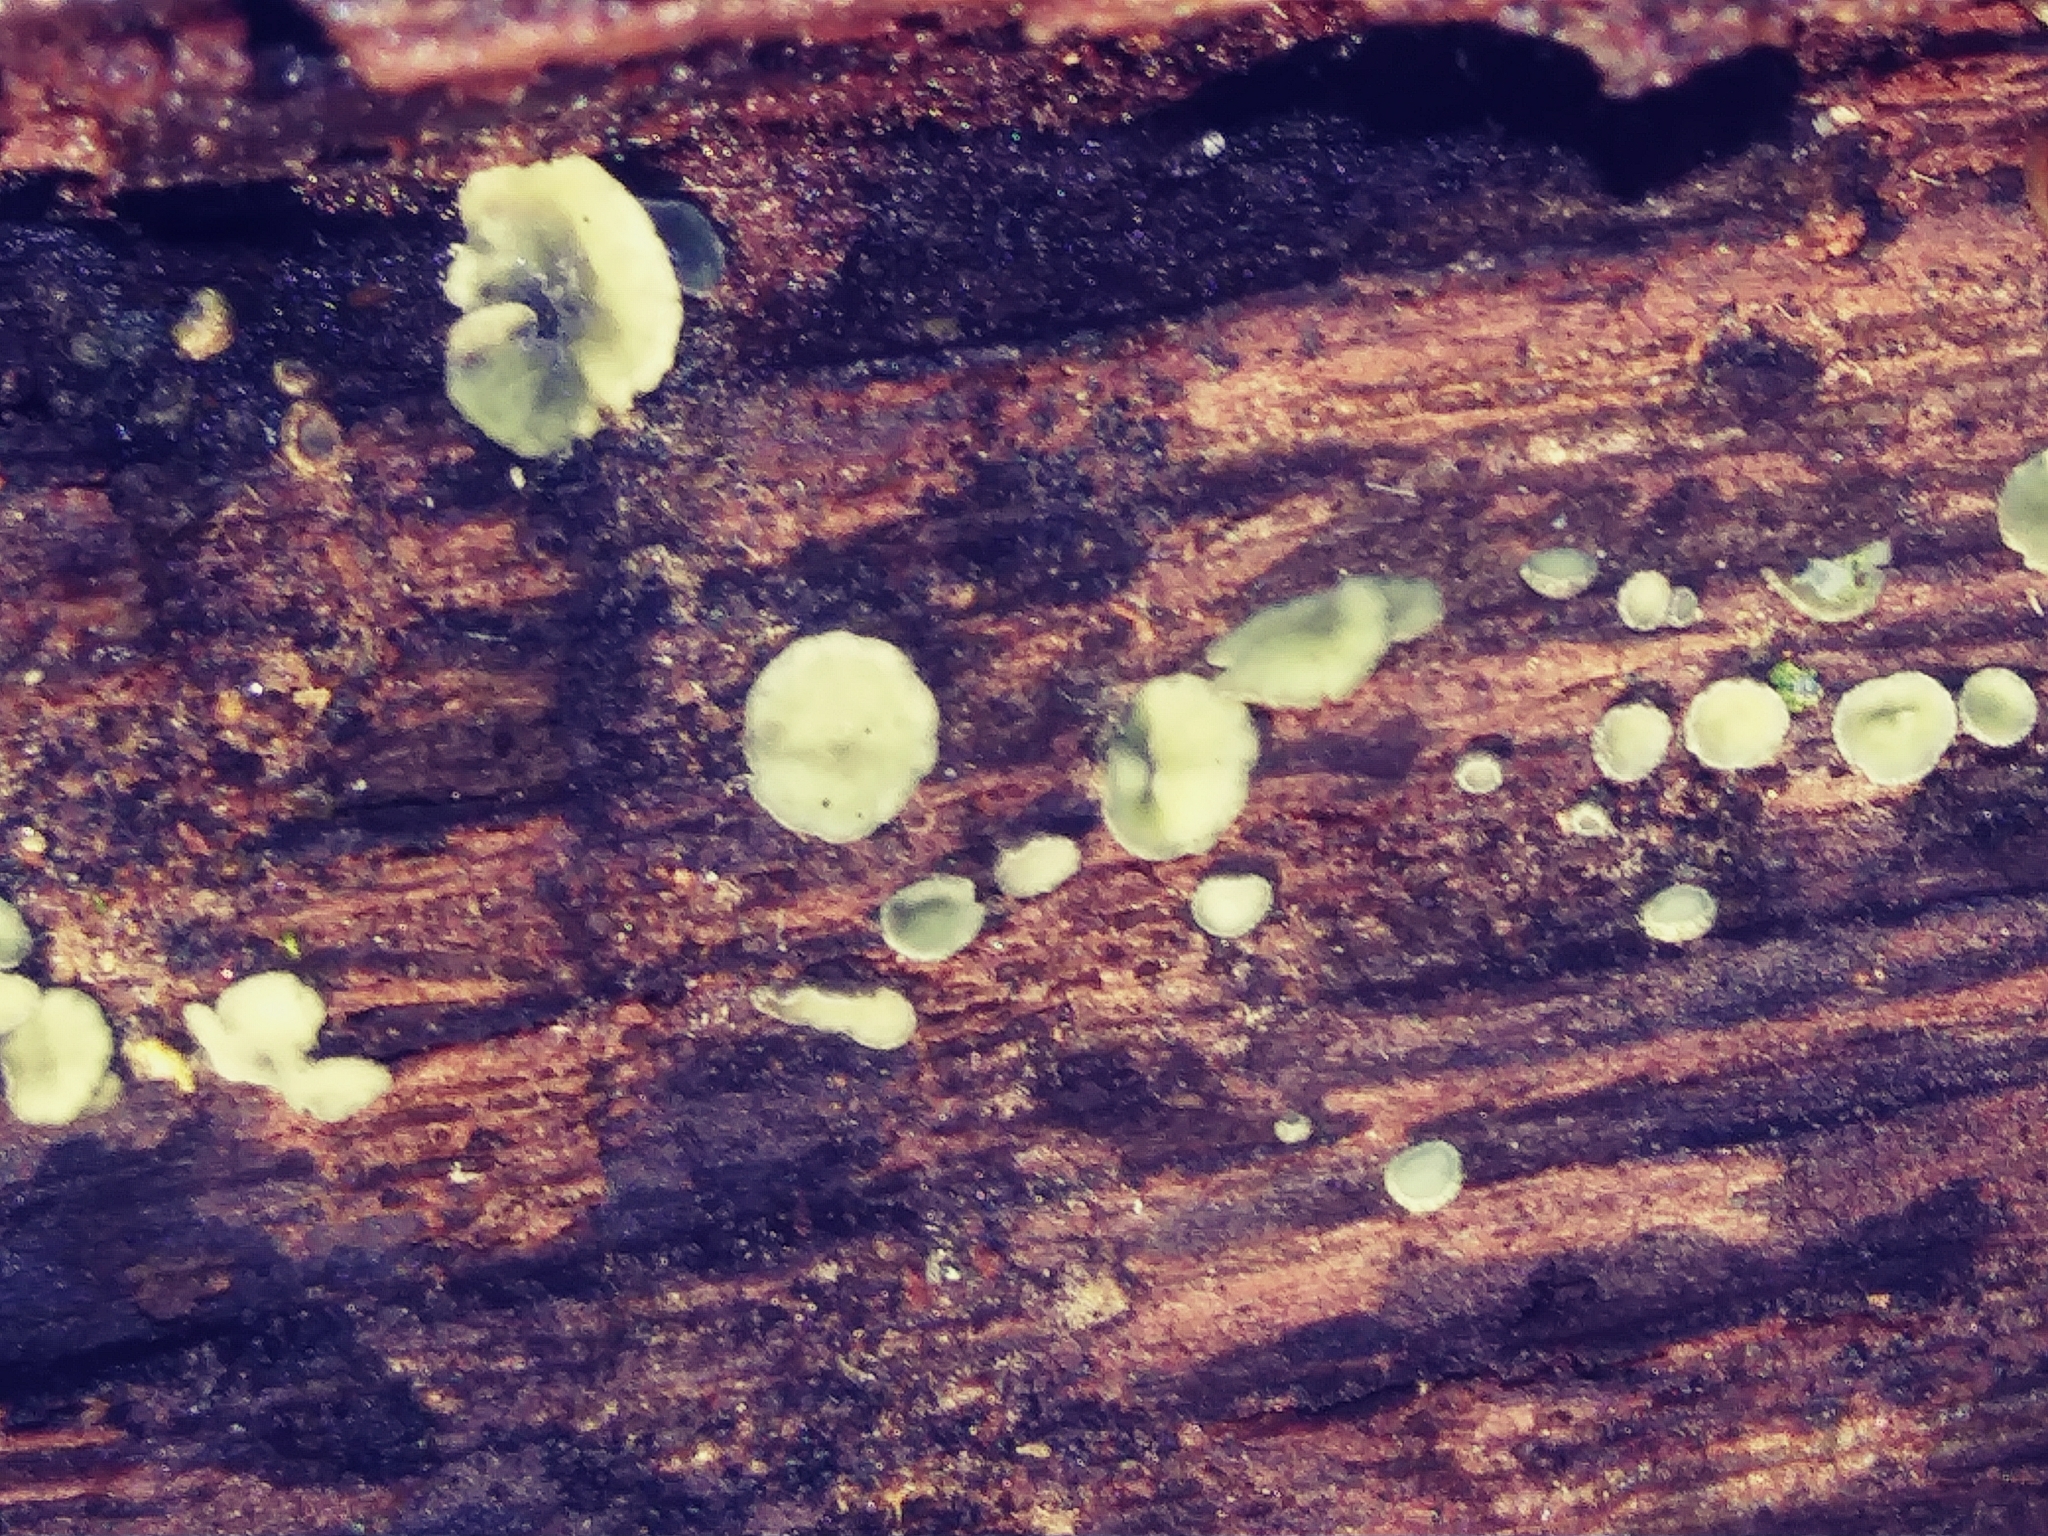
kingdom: Fungi
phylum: Ascomycota
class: Leotiomycetes
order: Helotiales
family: Chlorospleniaceae
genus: Chlorosplenium
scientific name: Chlorosplenium chlora
